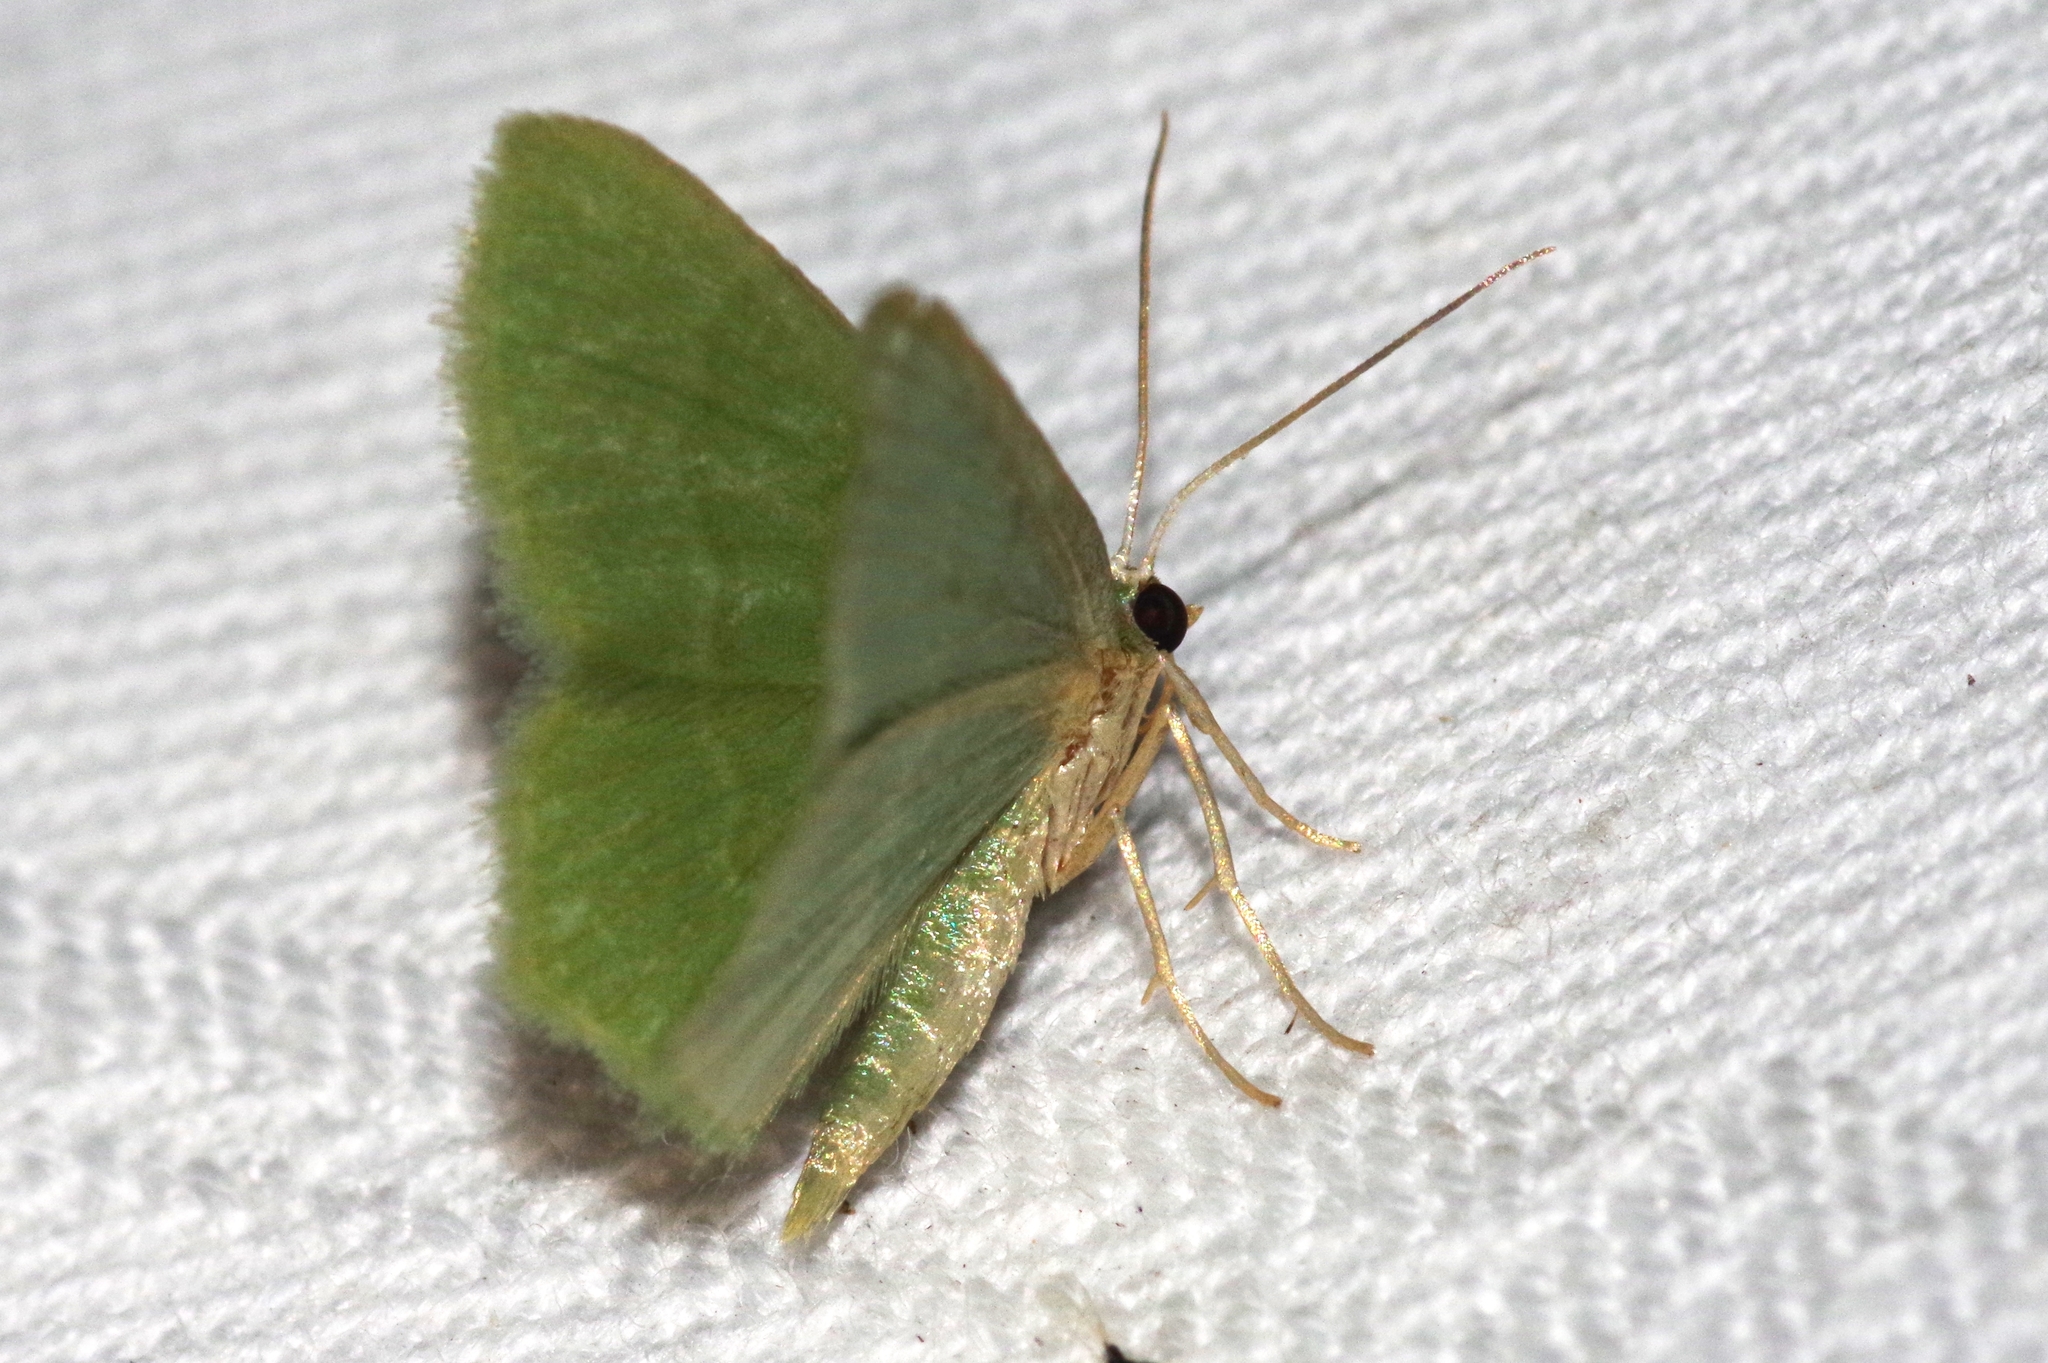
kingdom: Animalia
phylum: Arthropoda
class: Insecta
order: Lepidoptera
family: Geometridae
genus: Idiochlora
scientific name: Idiochlora minuscula
